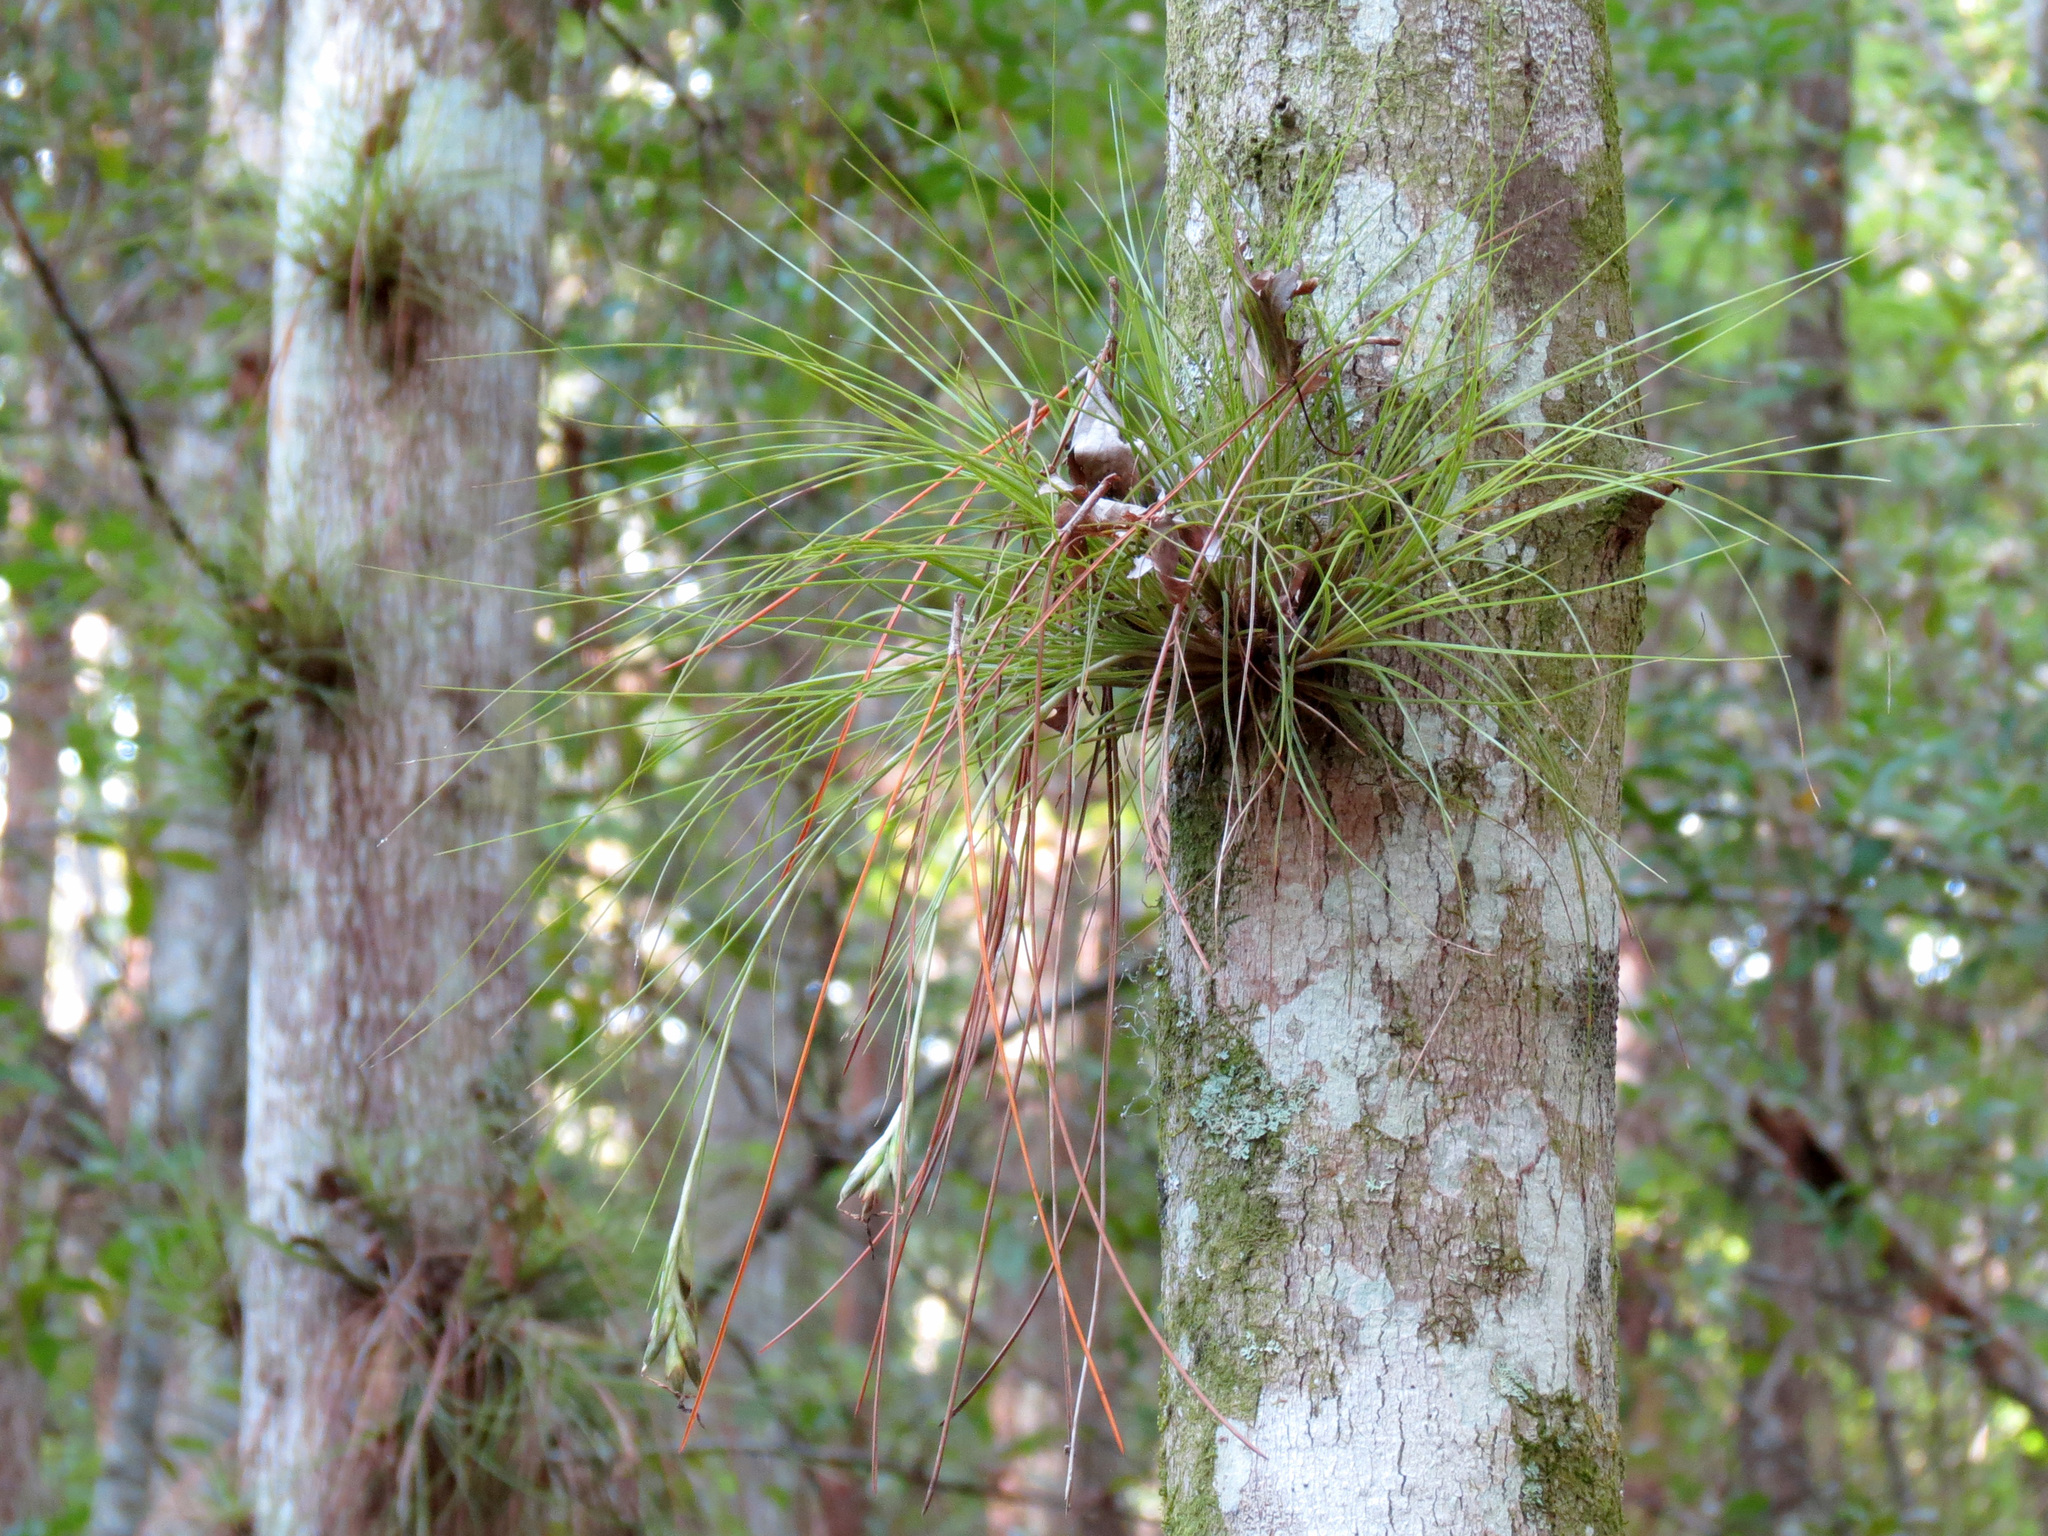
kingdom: Plantae
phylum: Tracheophyta
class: Liliopsida
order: Poales
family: Bromeliaceae
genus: Tillandsia
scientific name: Tillandsia bartramii
